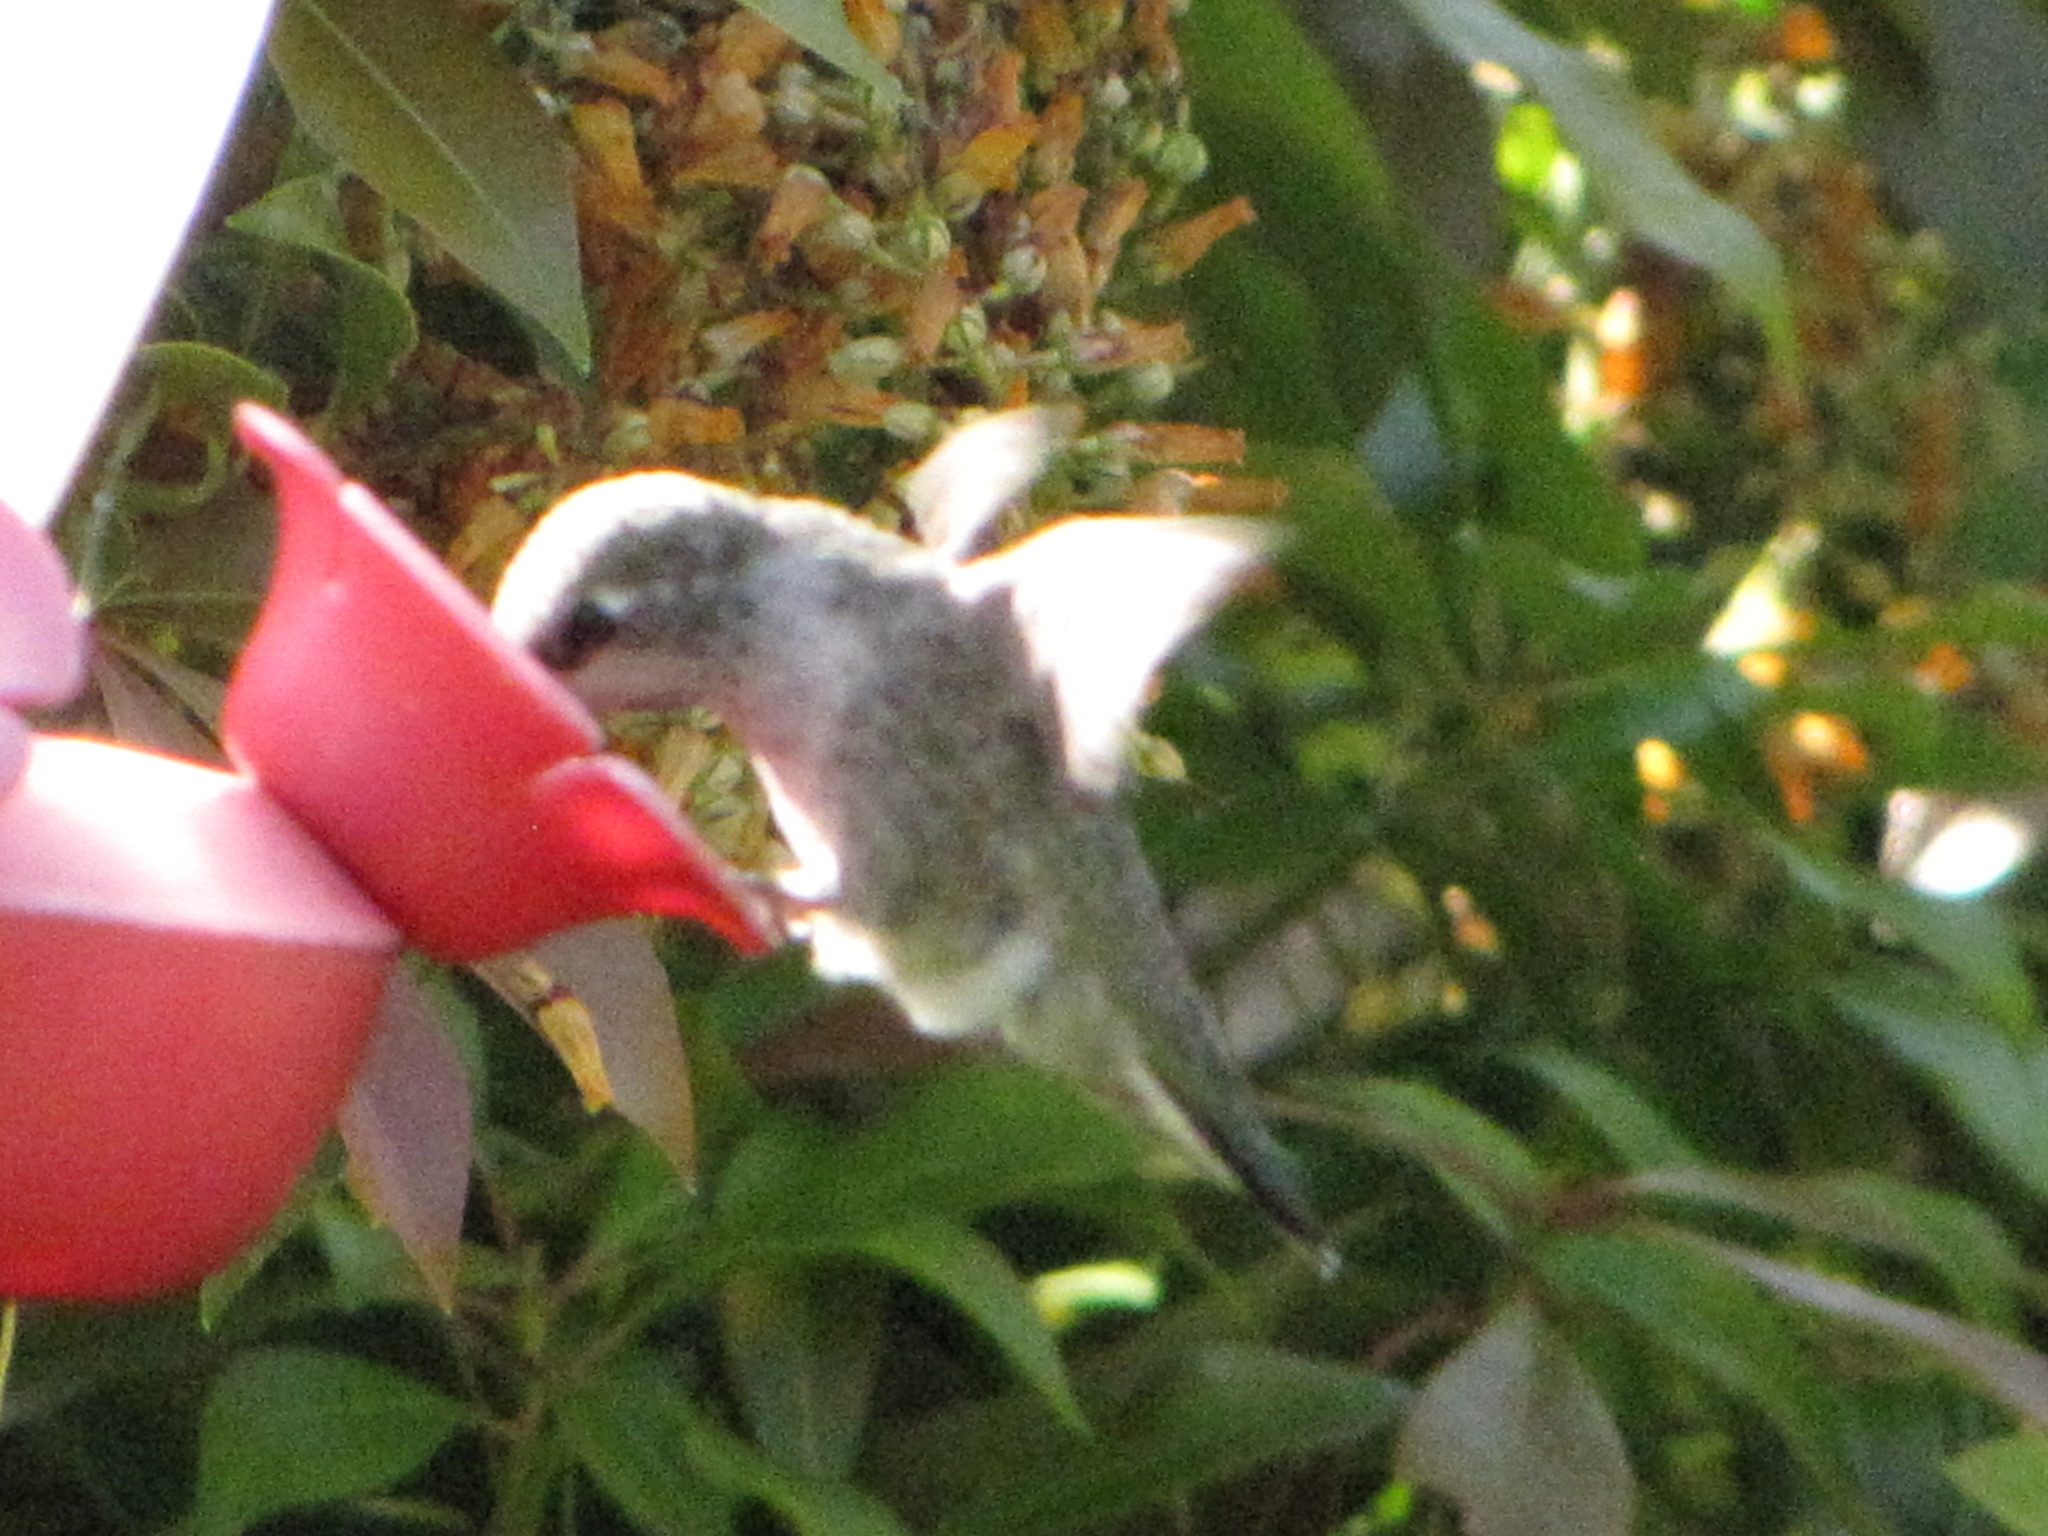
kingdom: Animalia
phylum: Chordata
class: Aves
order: Apodiformes
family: Trochilidae
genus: Calypte
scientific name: Calypte anna
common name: Anna's hummingbird
